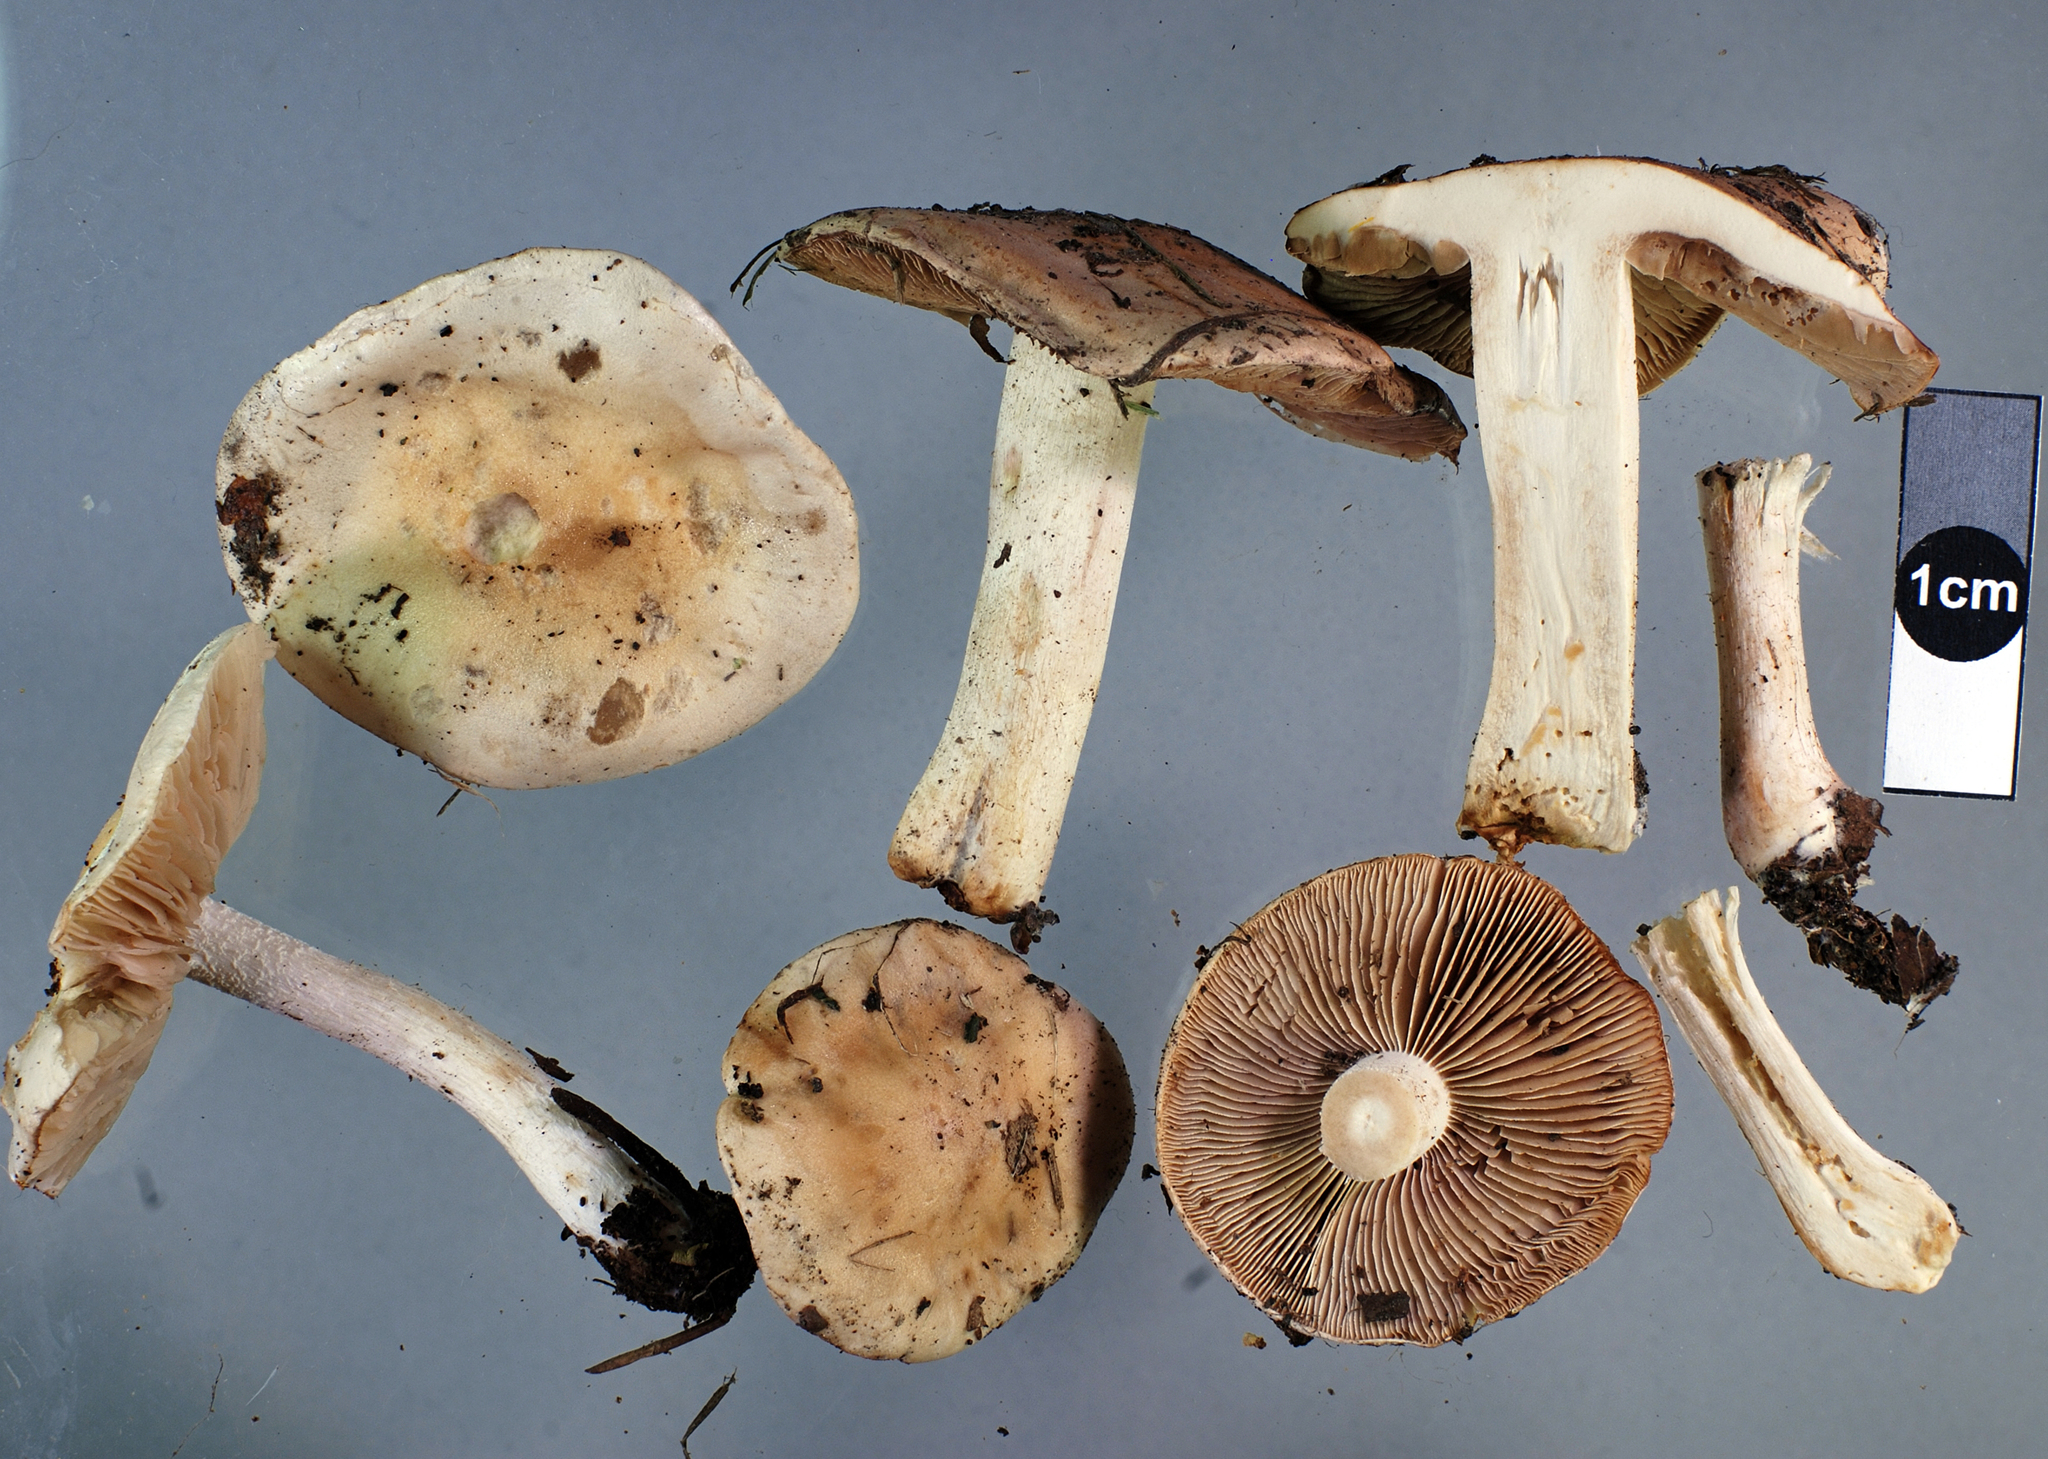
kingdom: Fungi
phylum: Basidiomycota
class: Agaricomycetes
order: Agaricales
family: Hymenogastraceae
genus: Hebeloma
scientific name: Hebeloma cavipes
